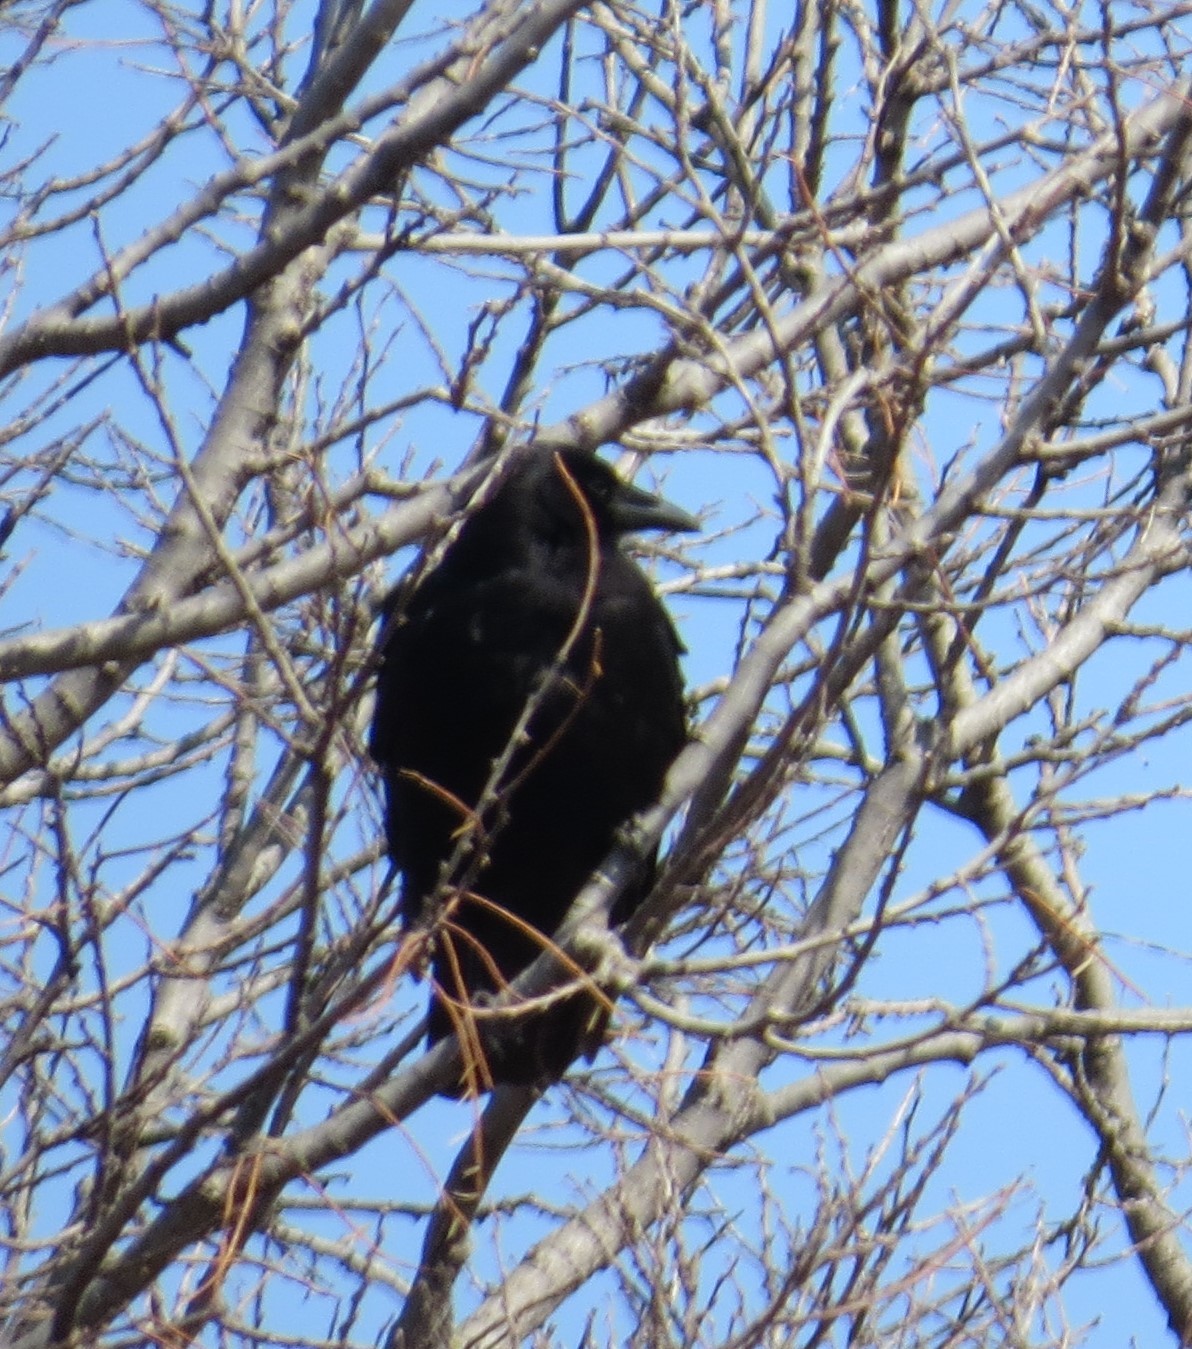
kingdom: Animalia
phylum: Chordata
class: Aves
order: Passeriformes
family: Corvidae
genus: Corvus
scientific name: Corvus brachyrhynchos
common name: American crow
